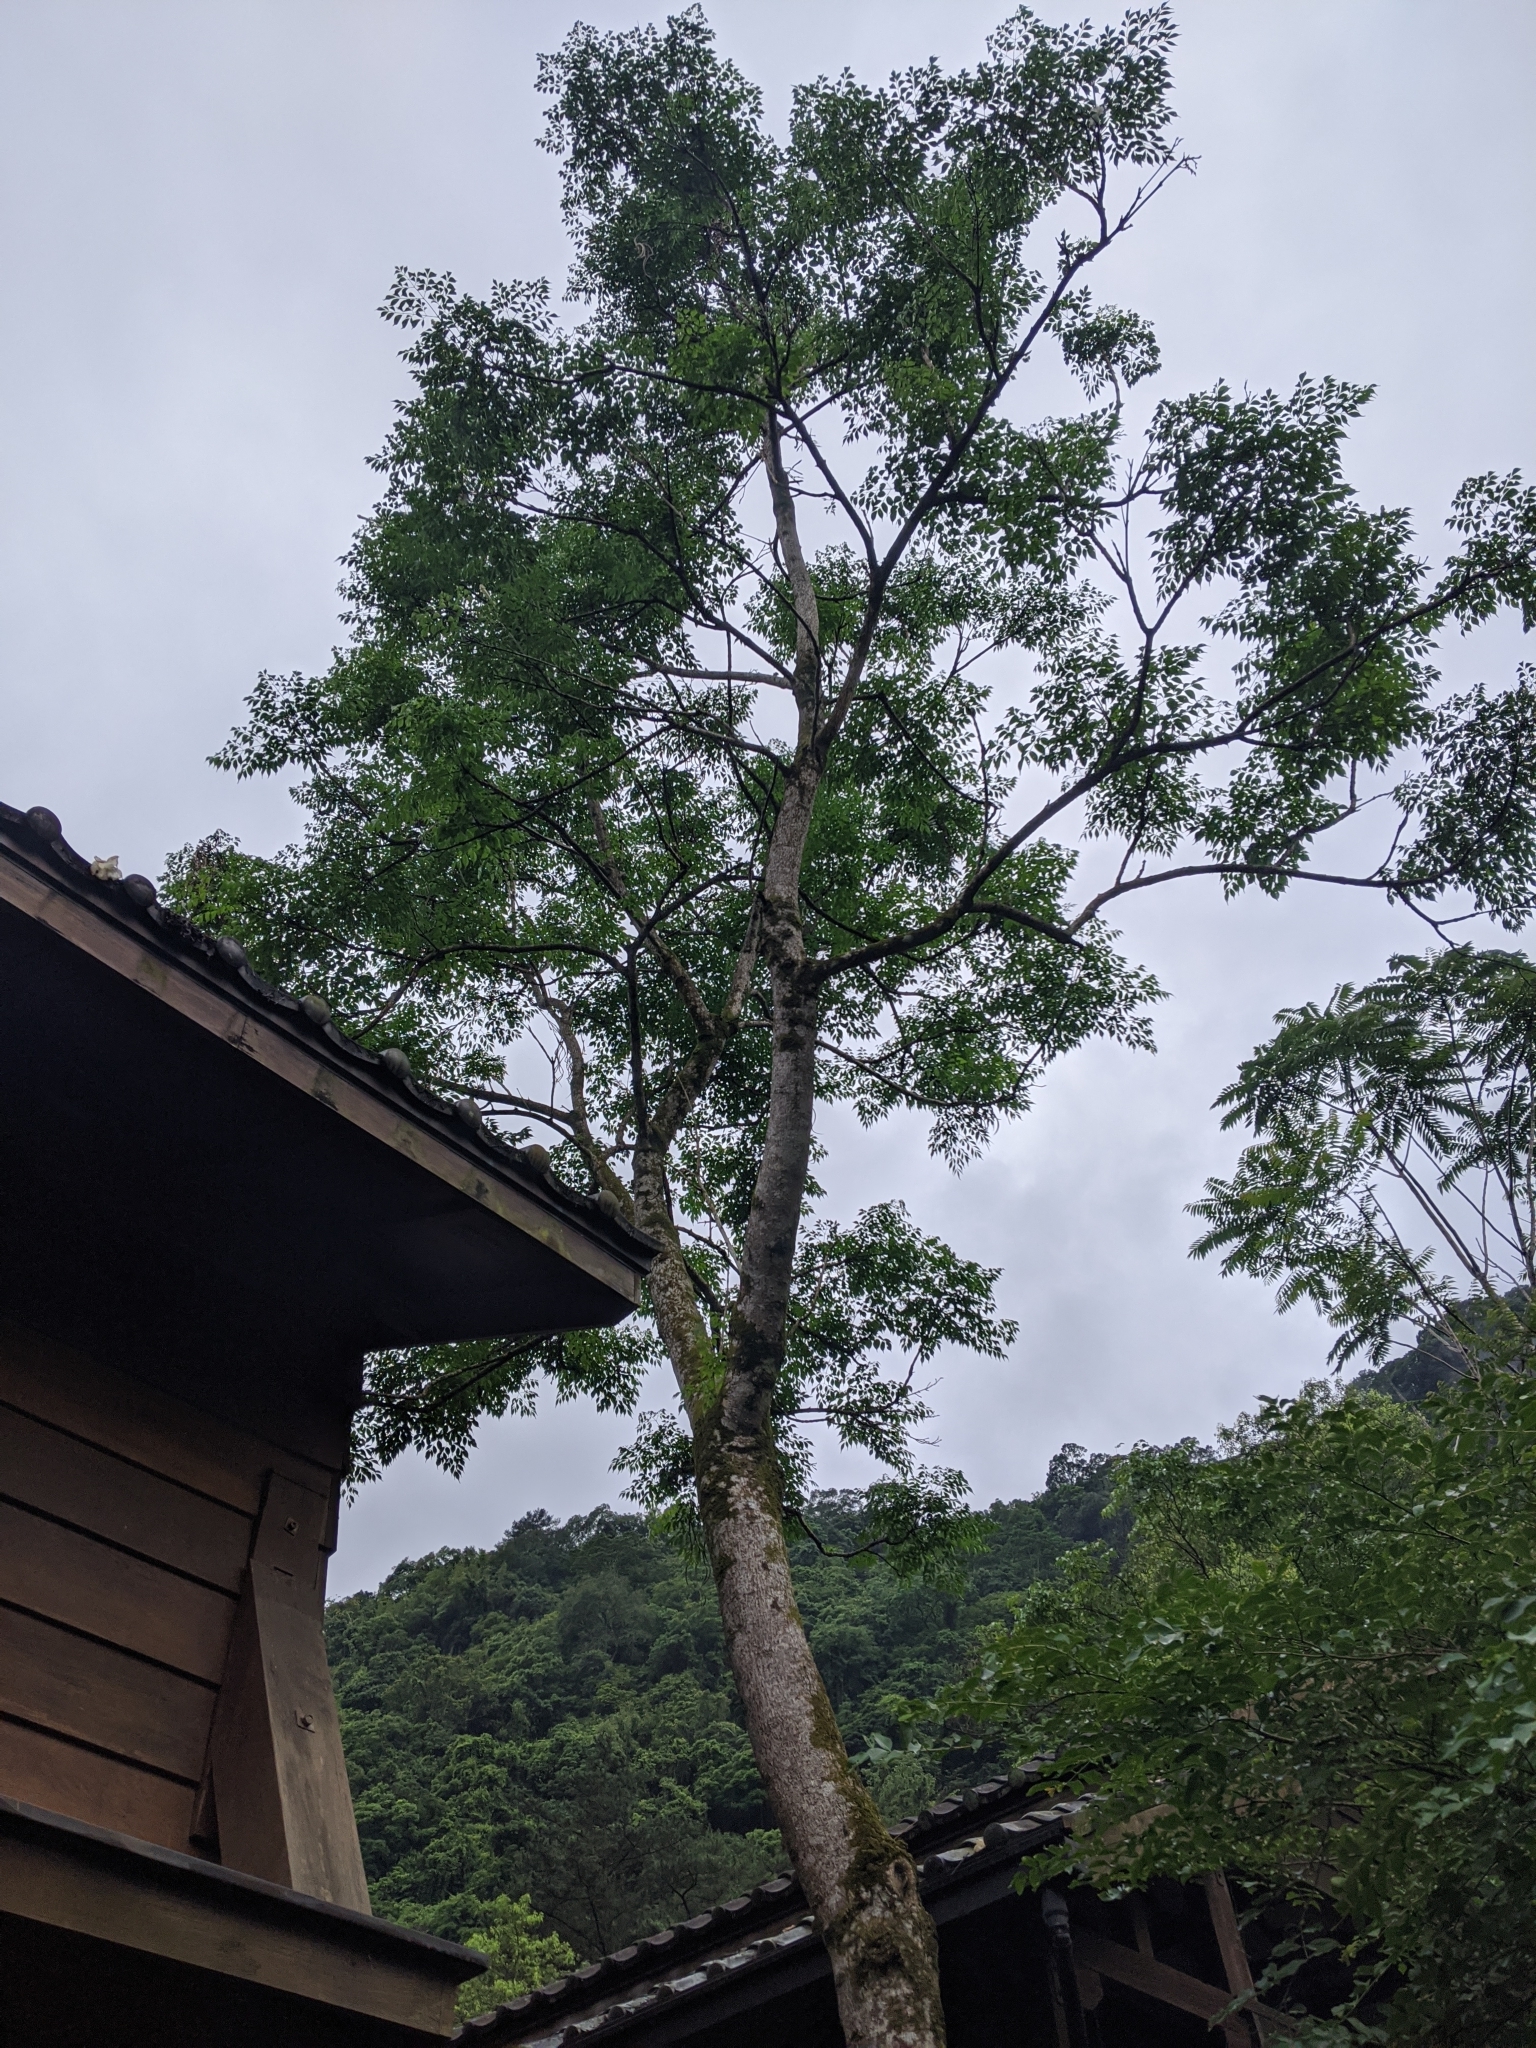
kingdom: Plantae
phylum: Tracheophyta
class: Magnoliopsida
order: Lamiales
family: Bignoniaceae
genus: Radermachera
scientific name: Radermachera sinica
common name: China doll plant
